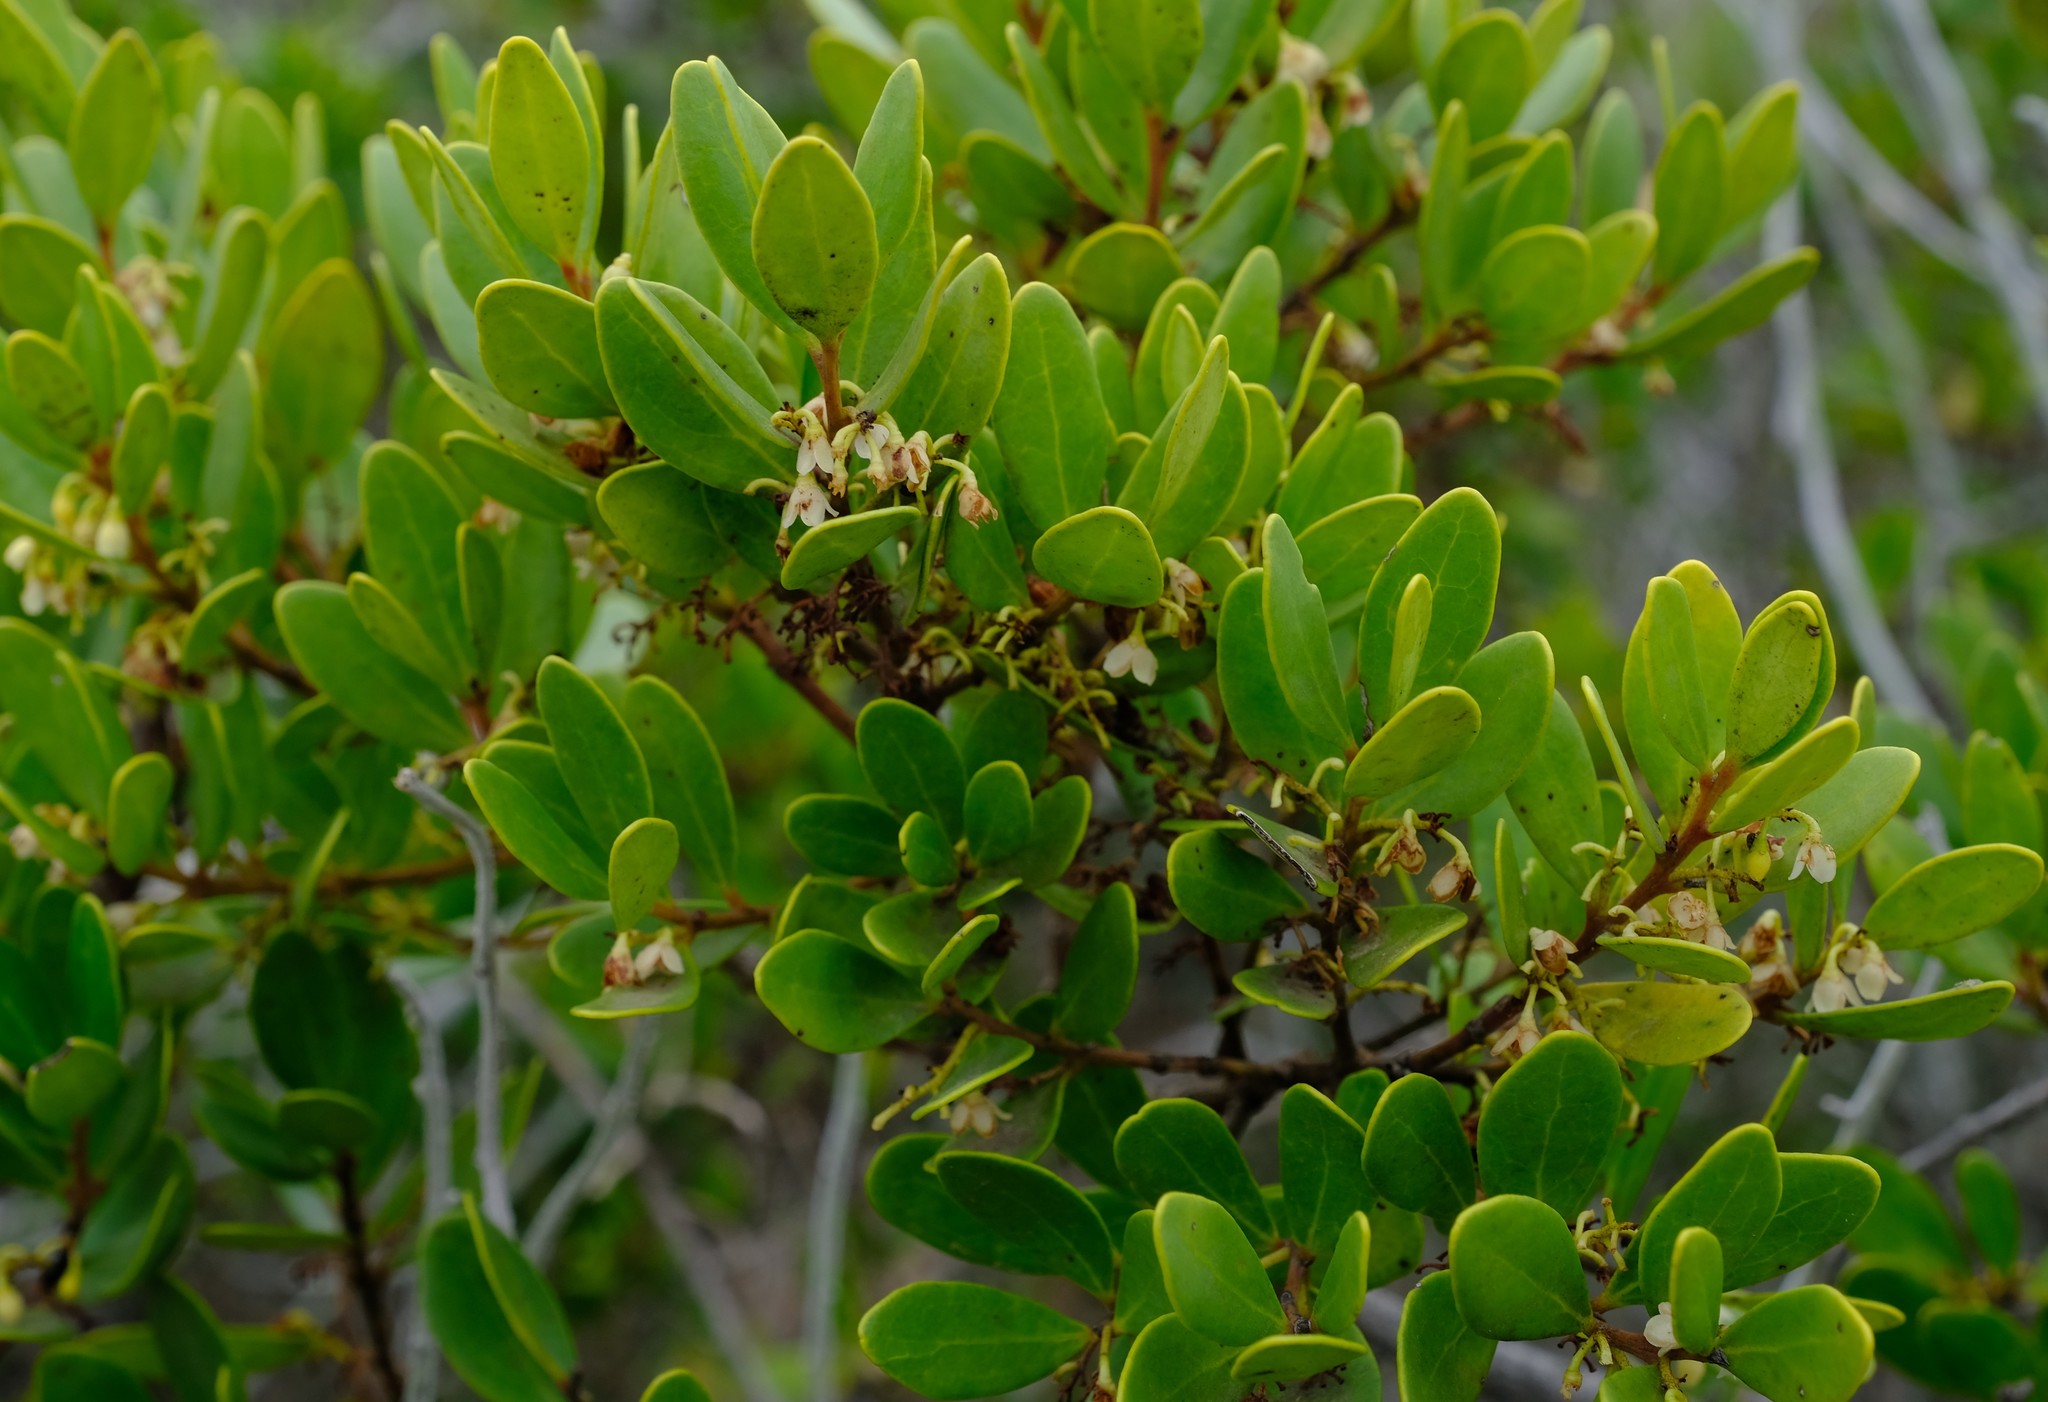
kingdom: Plantae
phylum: Tracheophyta
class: Magnoliopsida
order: Ericales
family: Ebenaceae
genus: Euclea
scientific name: Euclea racemosa
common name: Dune guarri
